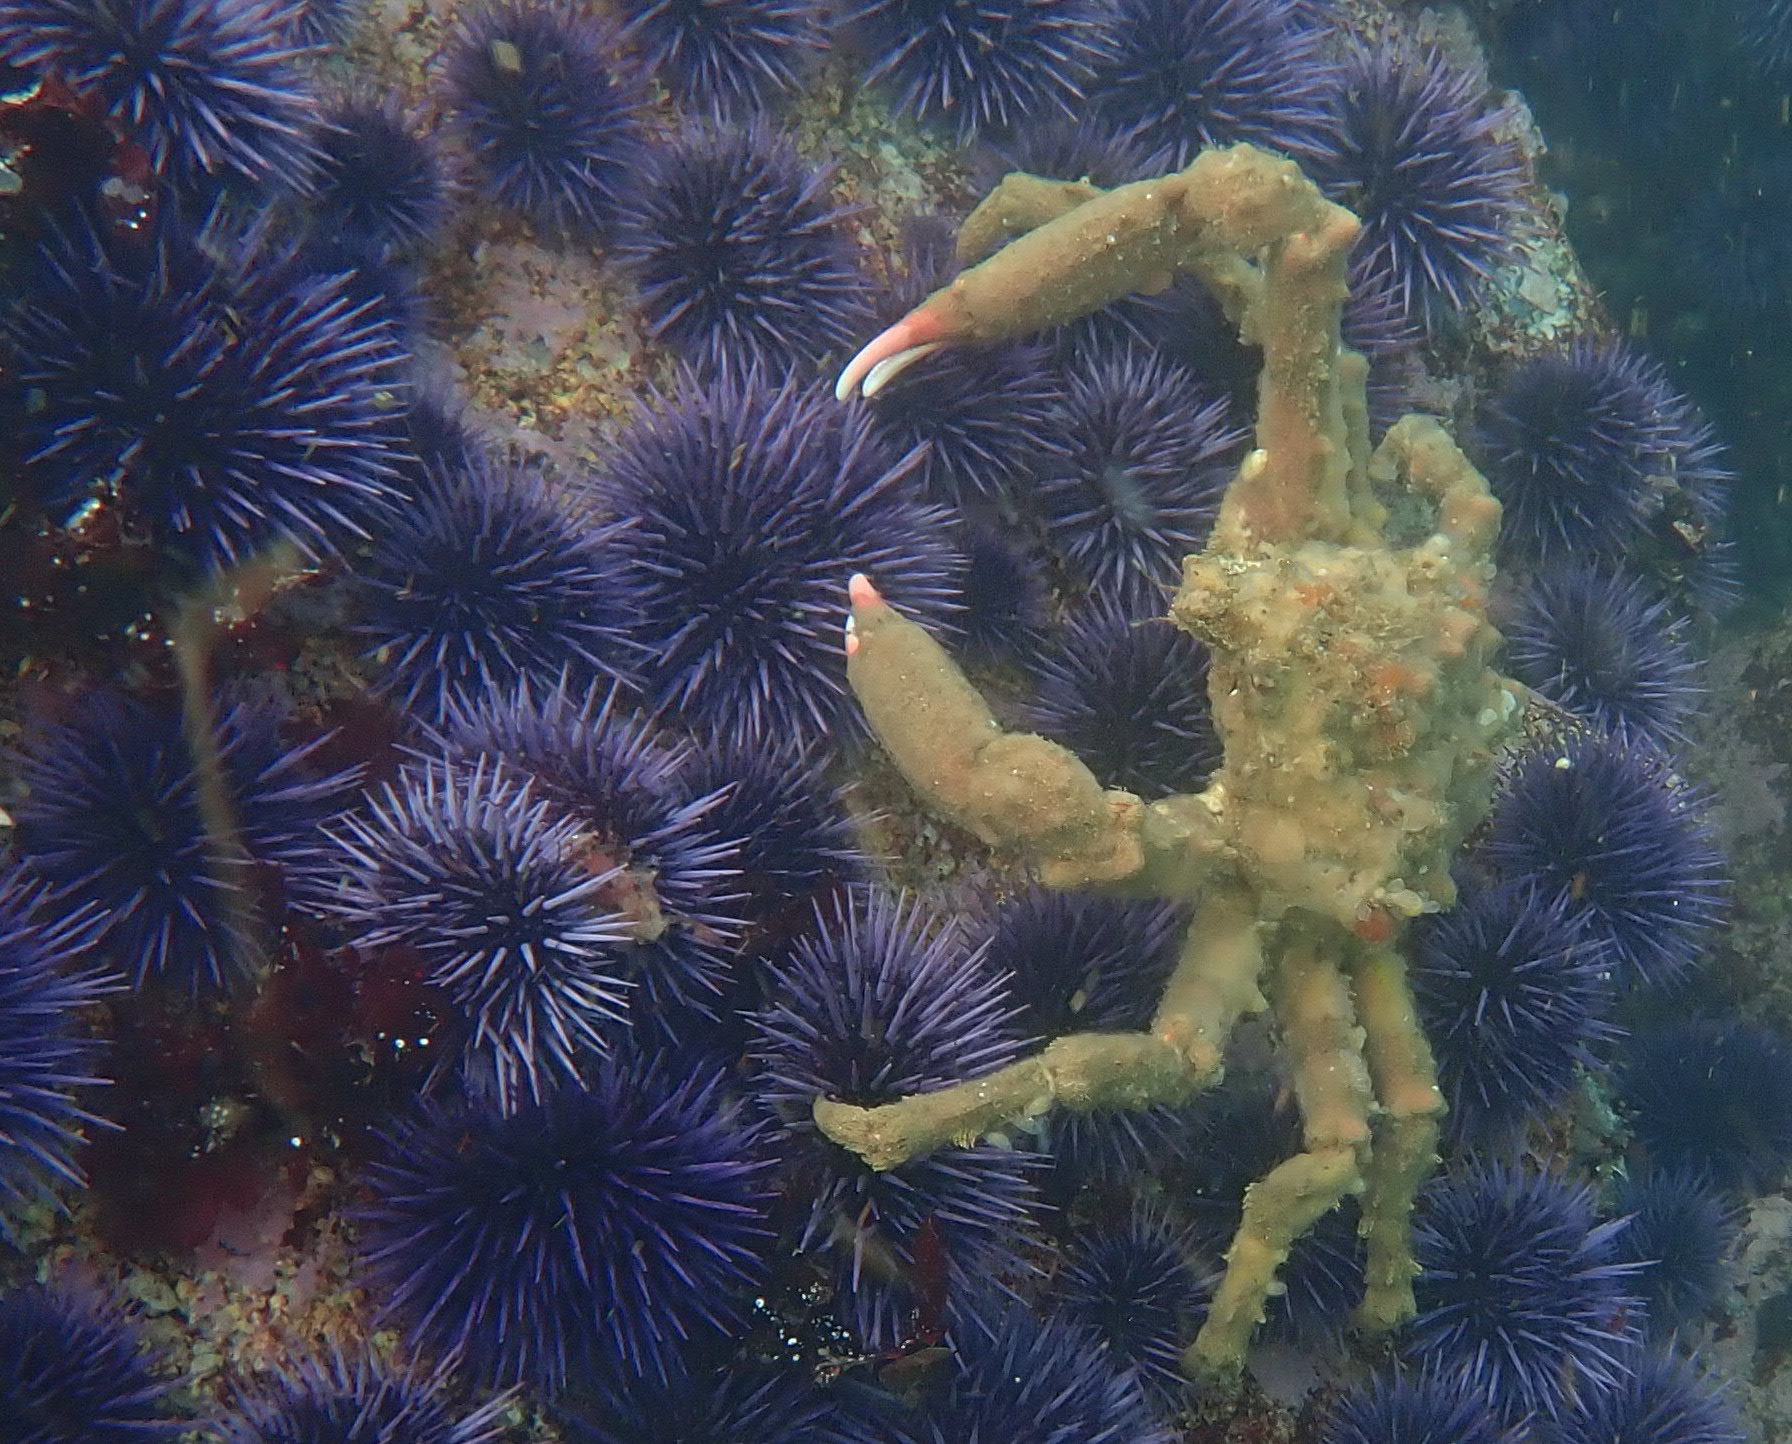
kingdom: Animalia
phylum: Arthropoda
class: Malacostraca
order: Decapoda
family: Epialtidae
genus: Loxorhynchus
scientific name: Loxorhynchus crispatus
